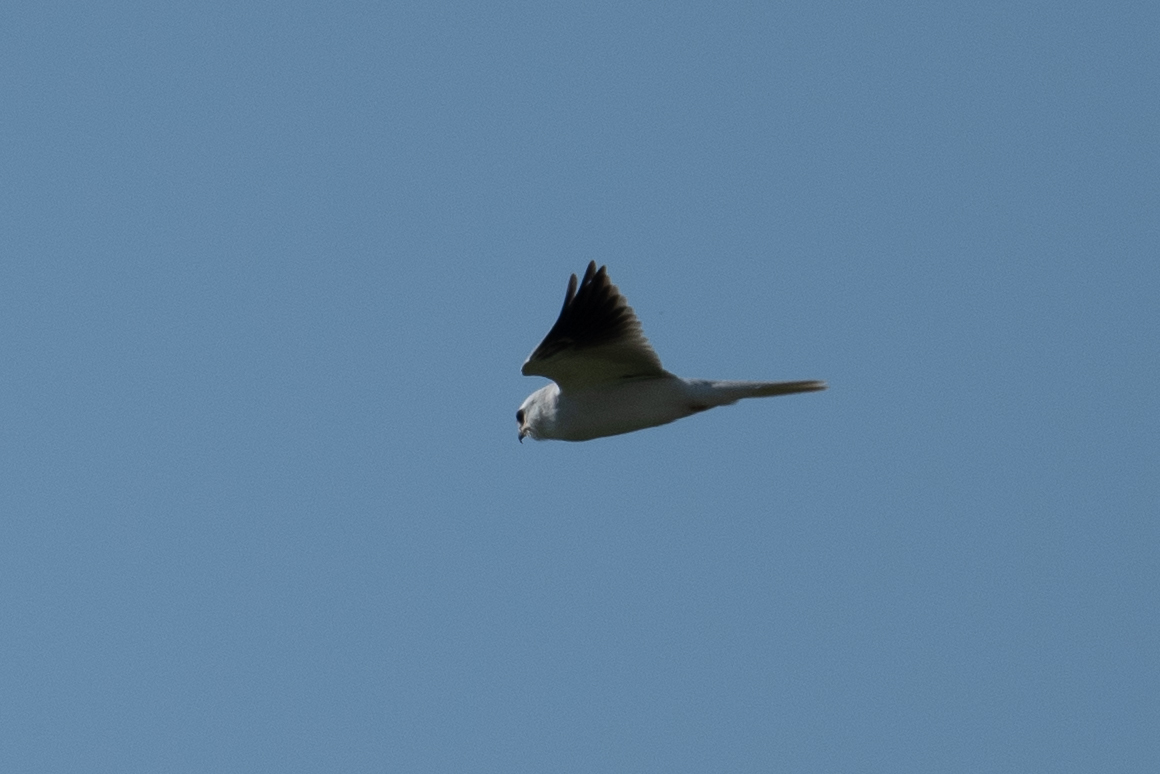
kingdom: Animalia
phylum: Chordata
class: Aves
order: Accipitriformes
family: Accipitridae
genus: Elanus
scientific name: Elanus leucurus
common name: White-tailed kite
